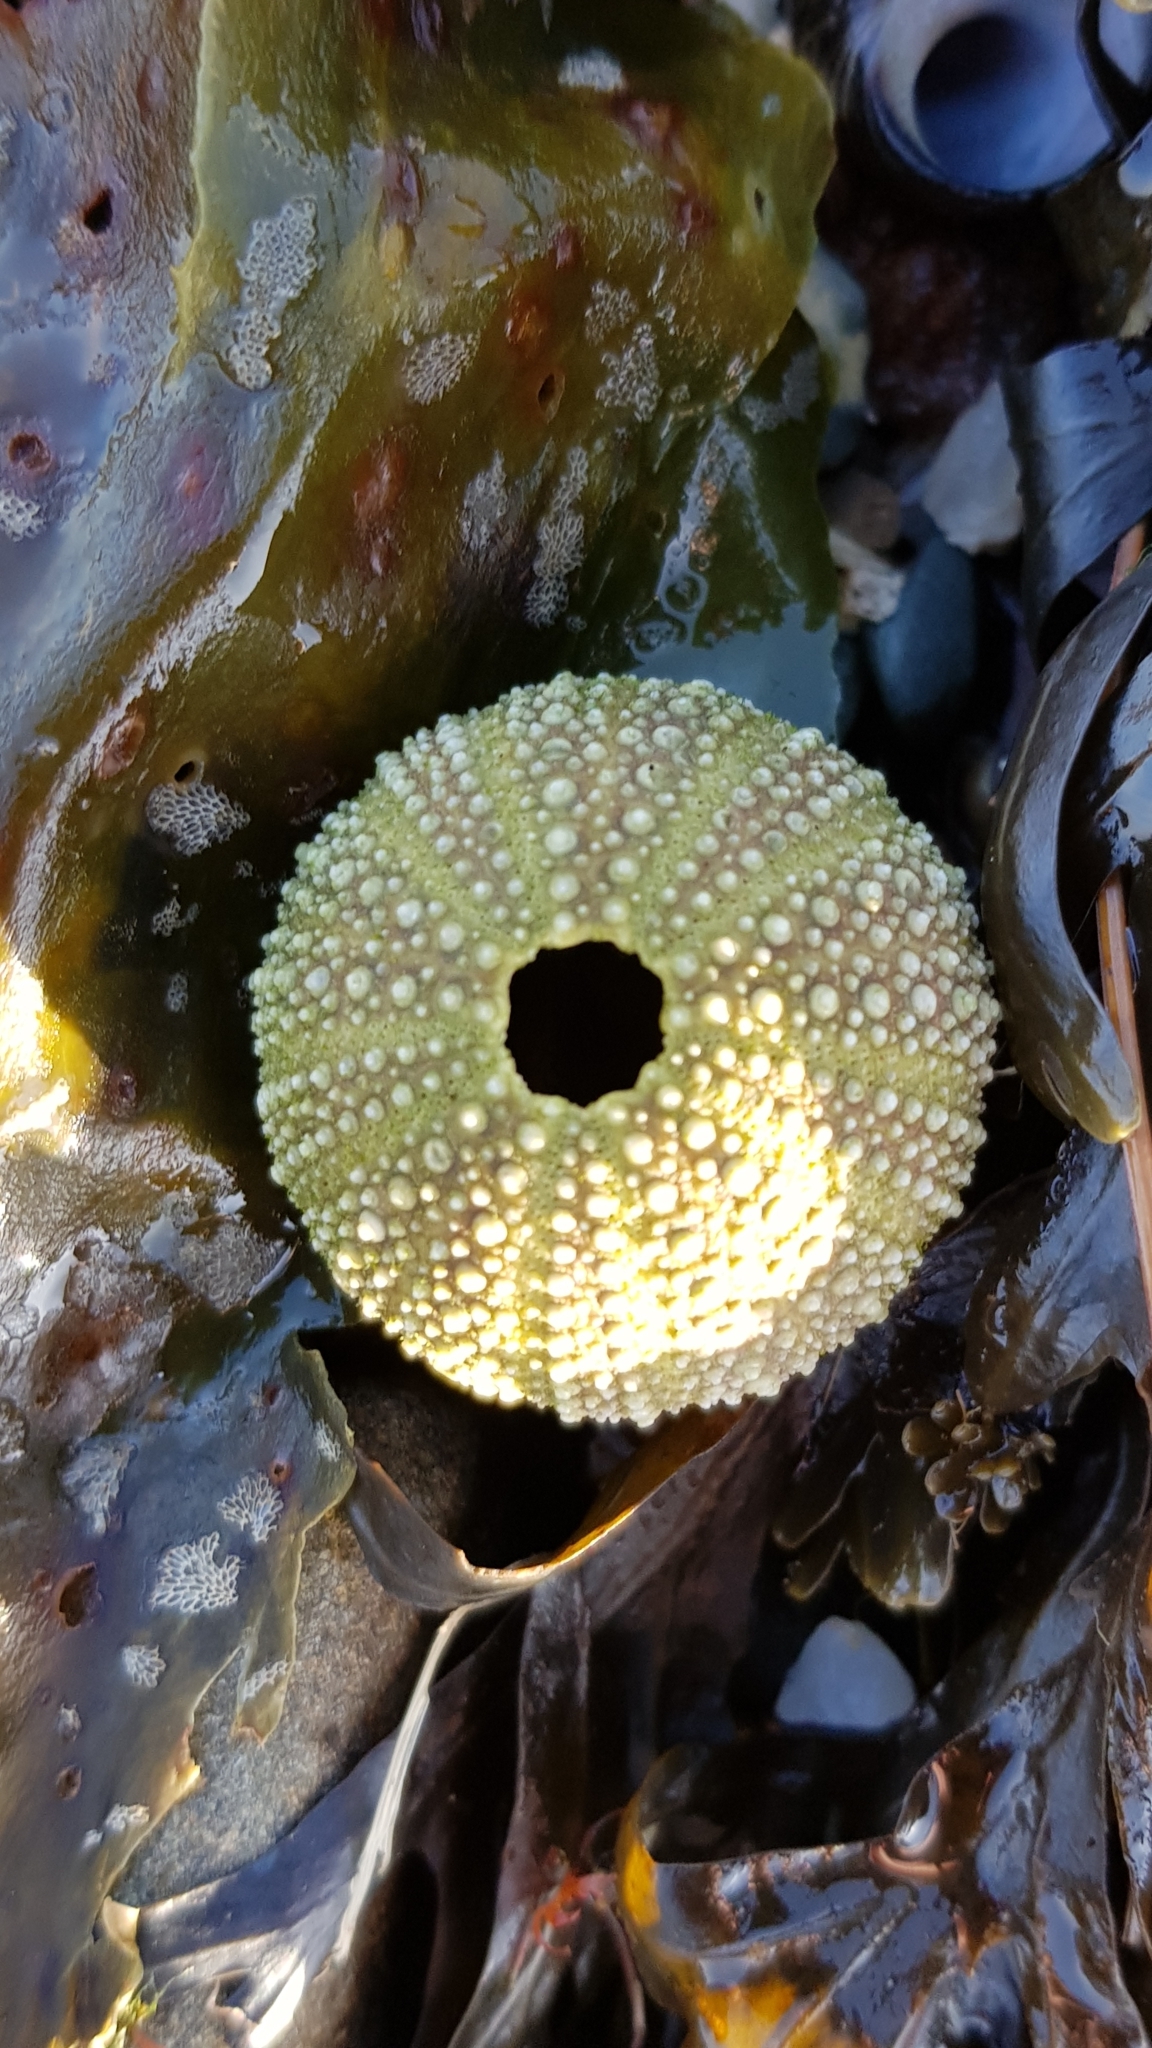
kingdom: Animalia
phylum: Echinodermata
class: Echinoidea
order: Camarodonta
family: Parechinidae
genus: Psammechinus
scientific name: Psammechinus miliaris
